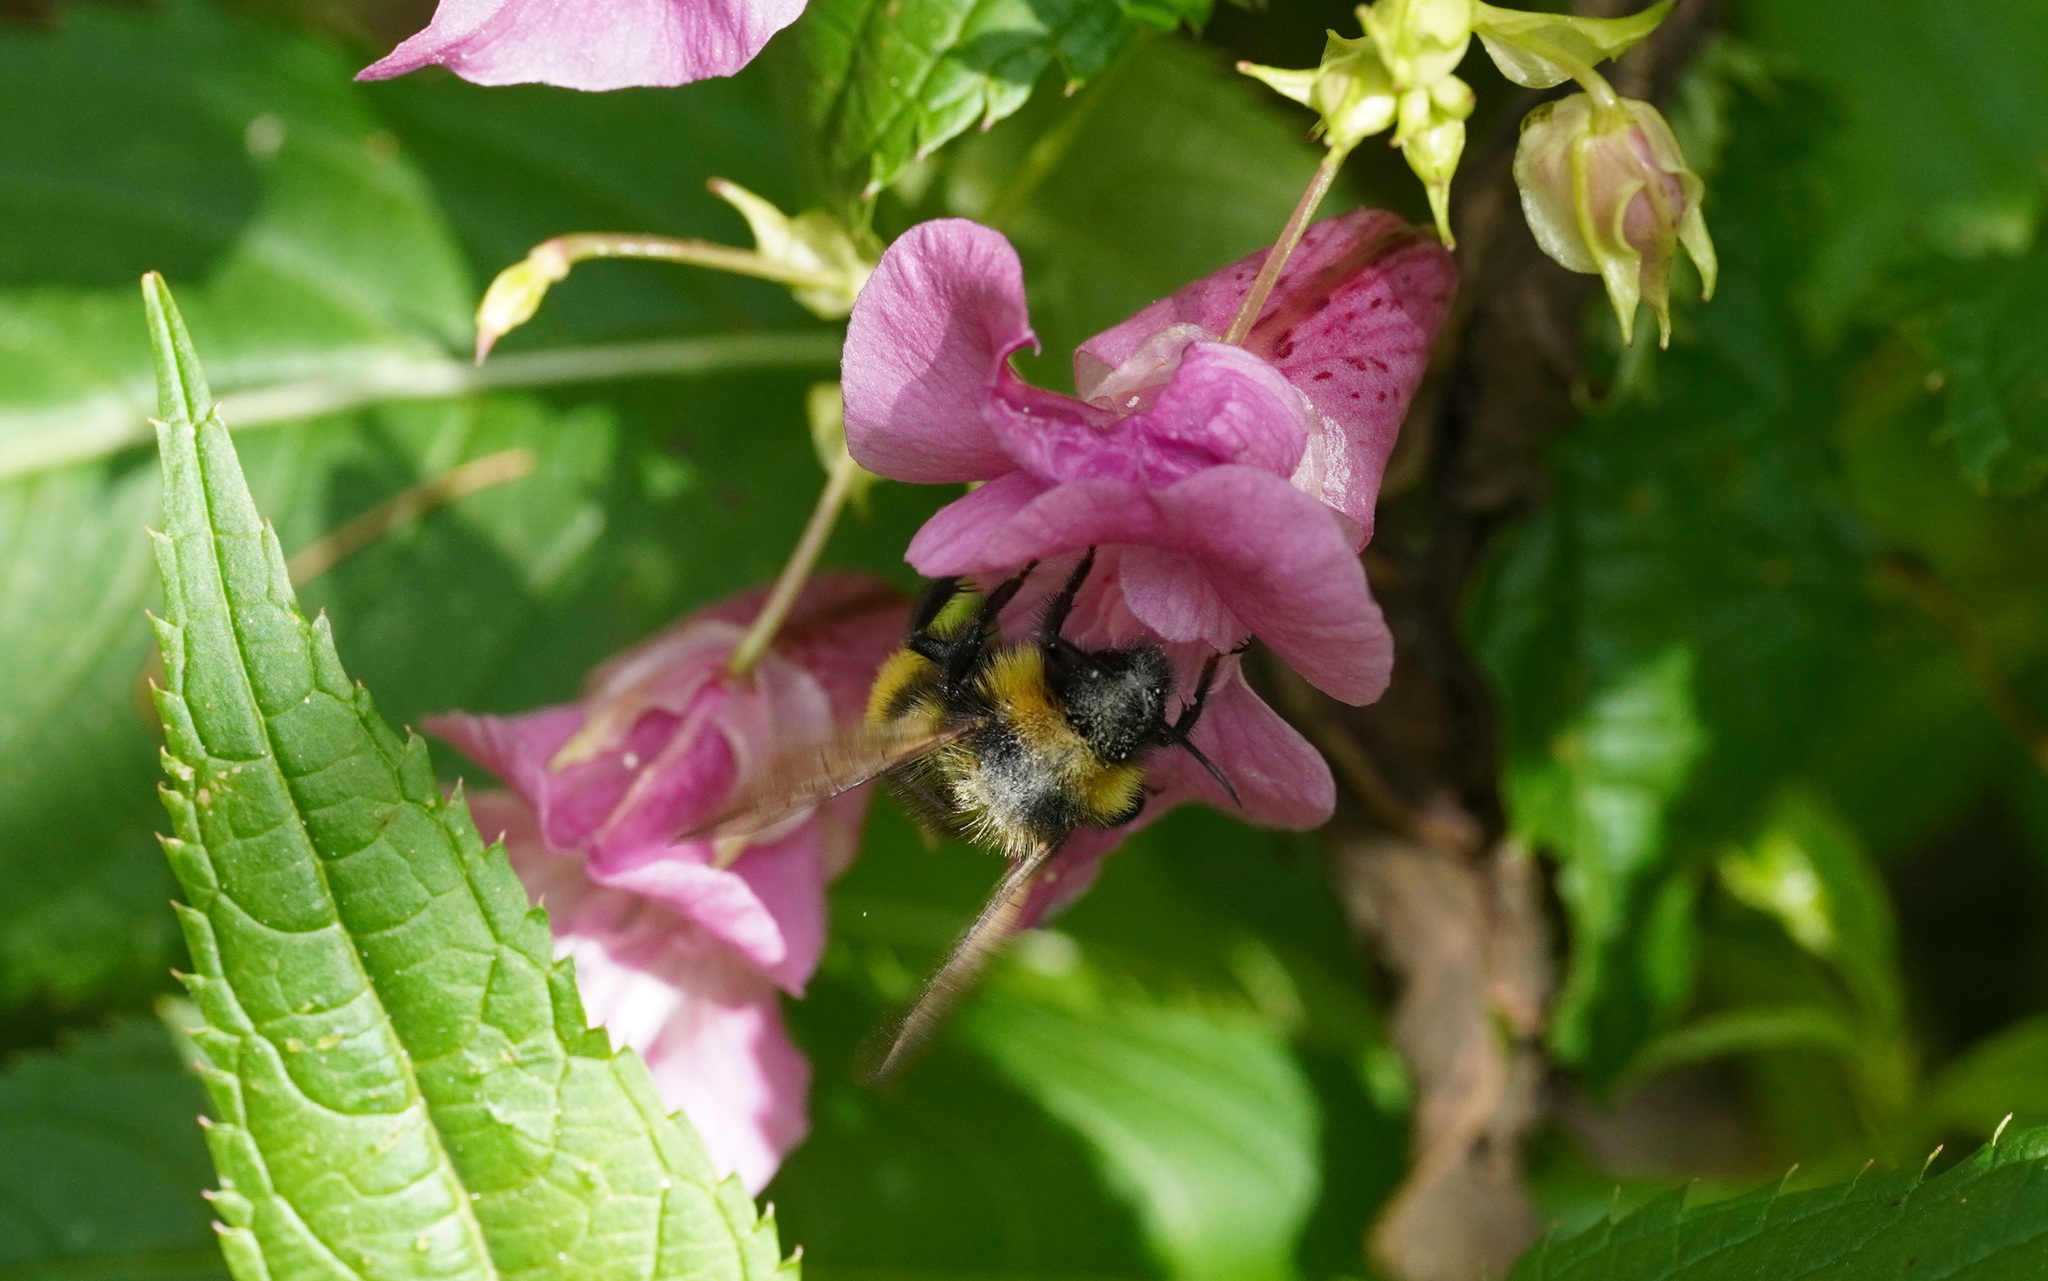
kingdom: Animalia
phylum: Arthropoda
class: Insecta
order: Hymenoptera
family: Apidae
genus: Bombus
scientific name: Bombus campestris
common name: Field cuckoo-bee
